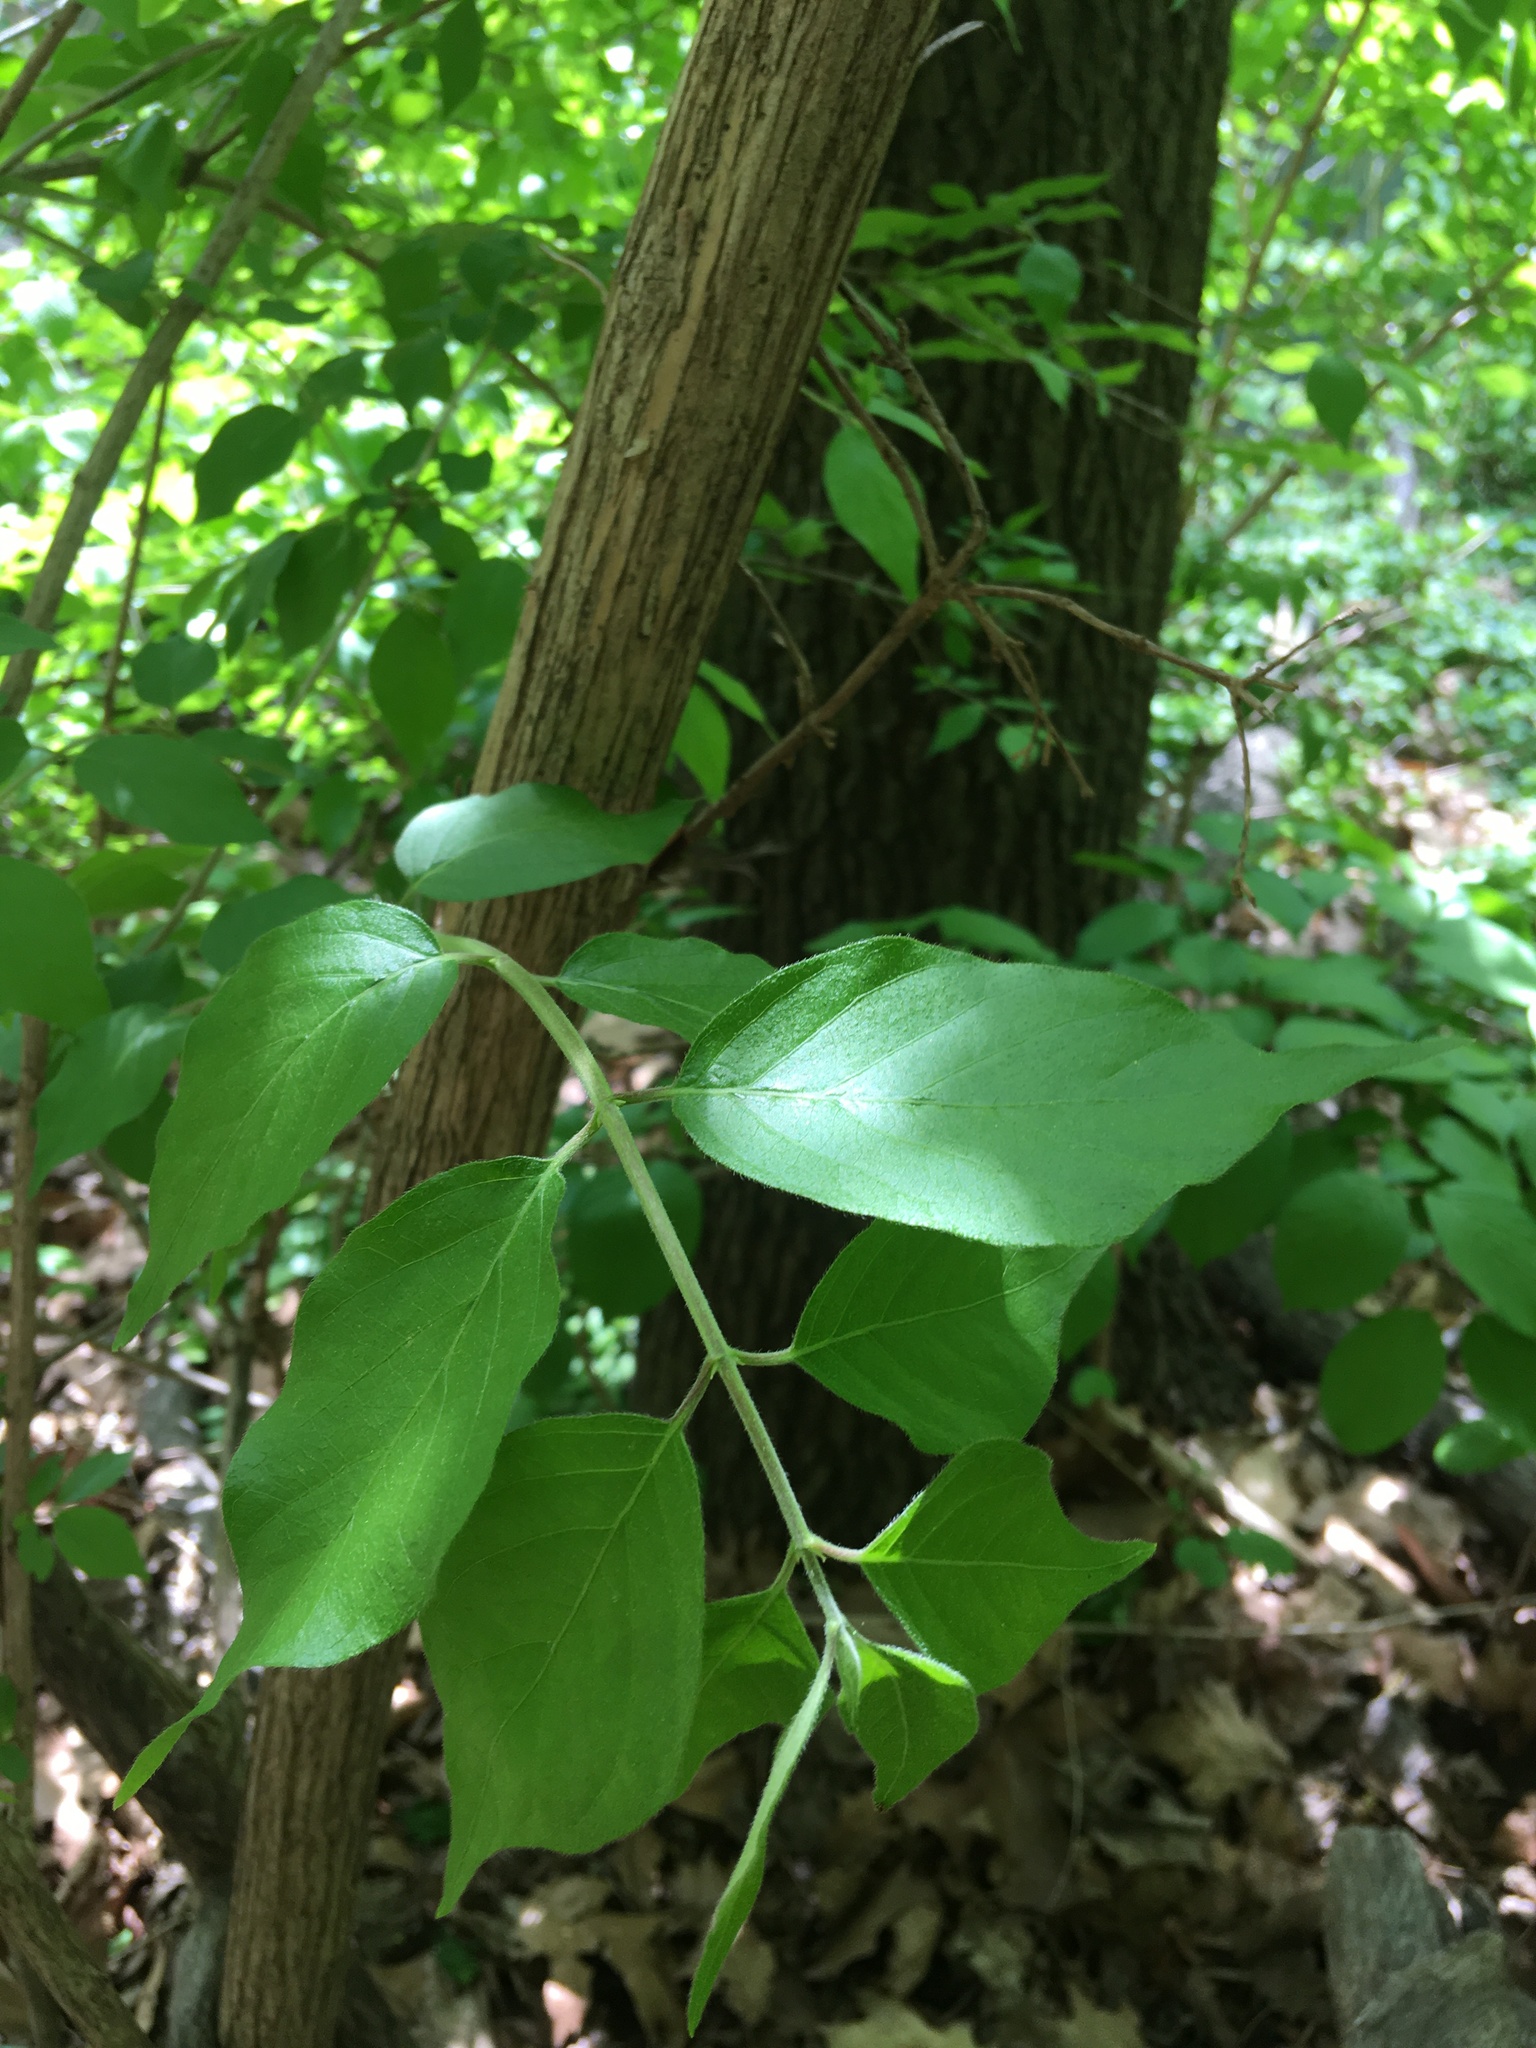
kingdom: Plantae
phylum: Tracheophyta
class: Magnoliopsida
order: Dipsacales
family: Caprifoliaceae
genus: Lonicera
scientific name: Lonicera maackii
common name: Amur honeysuckle
